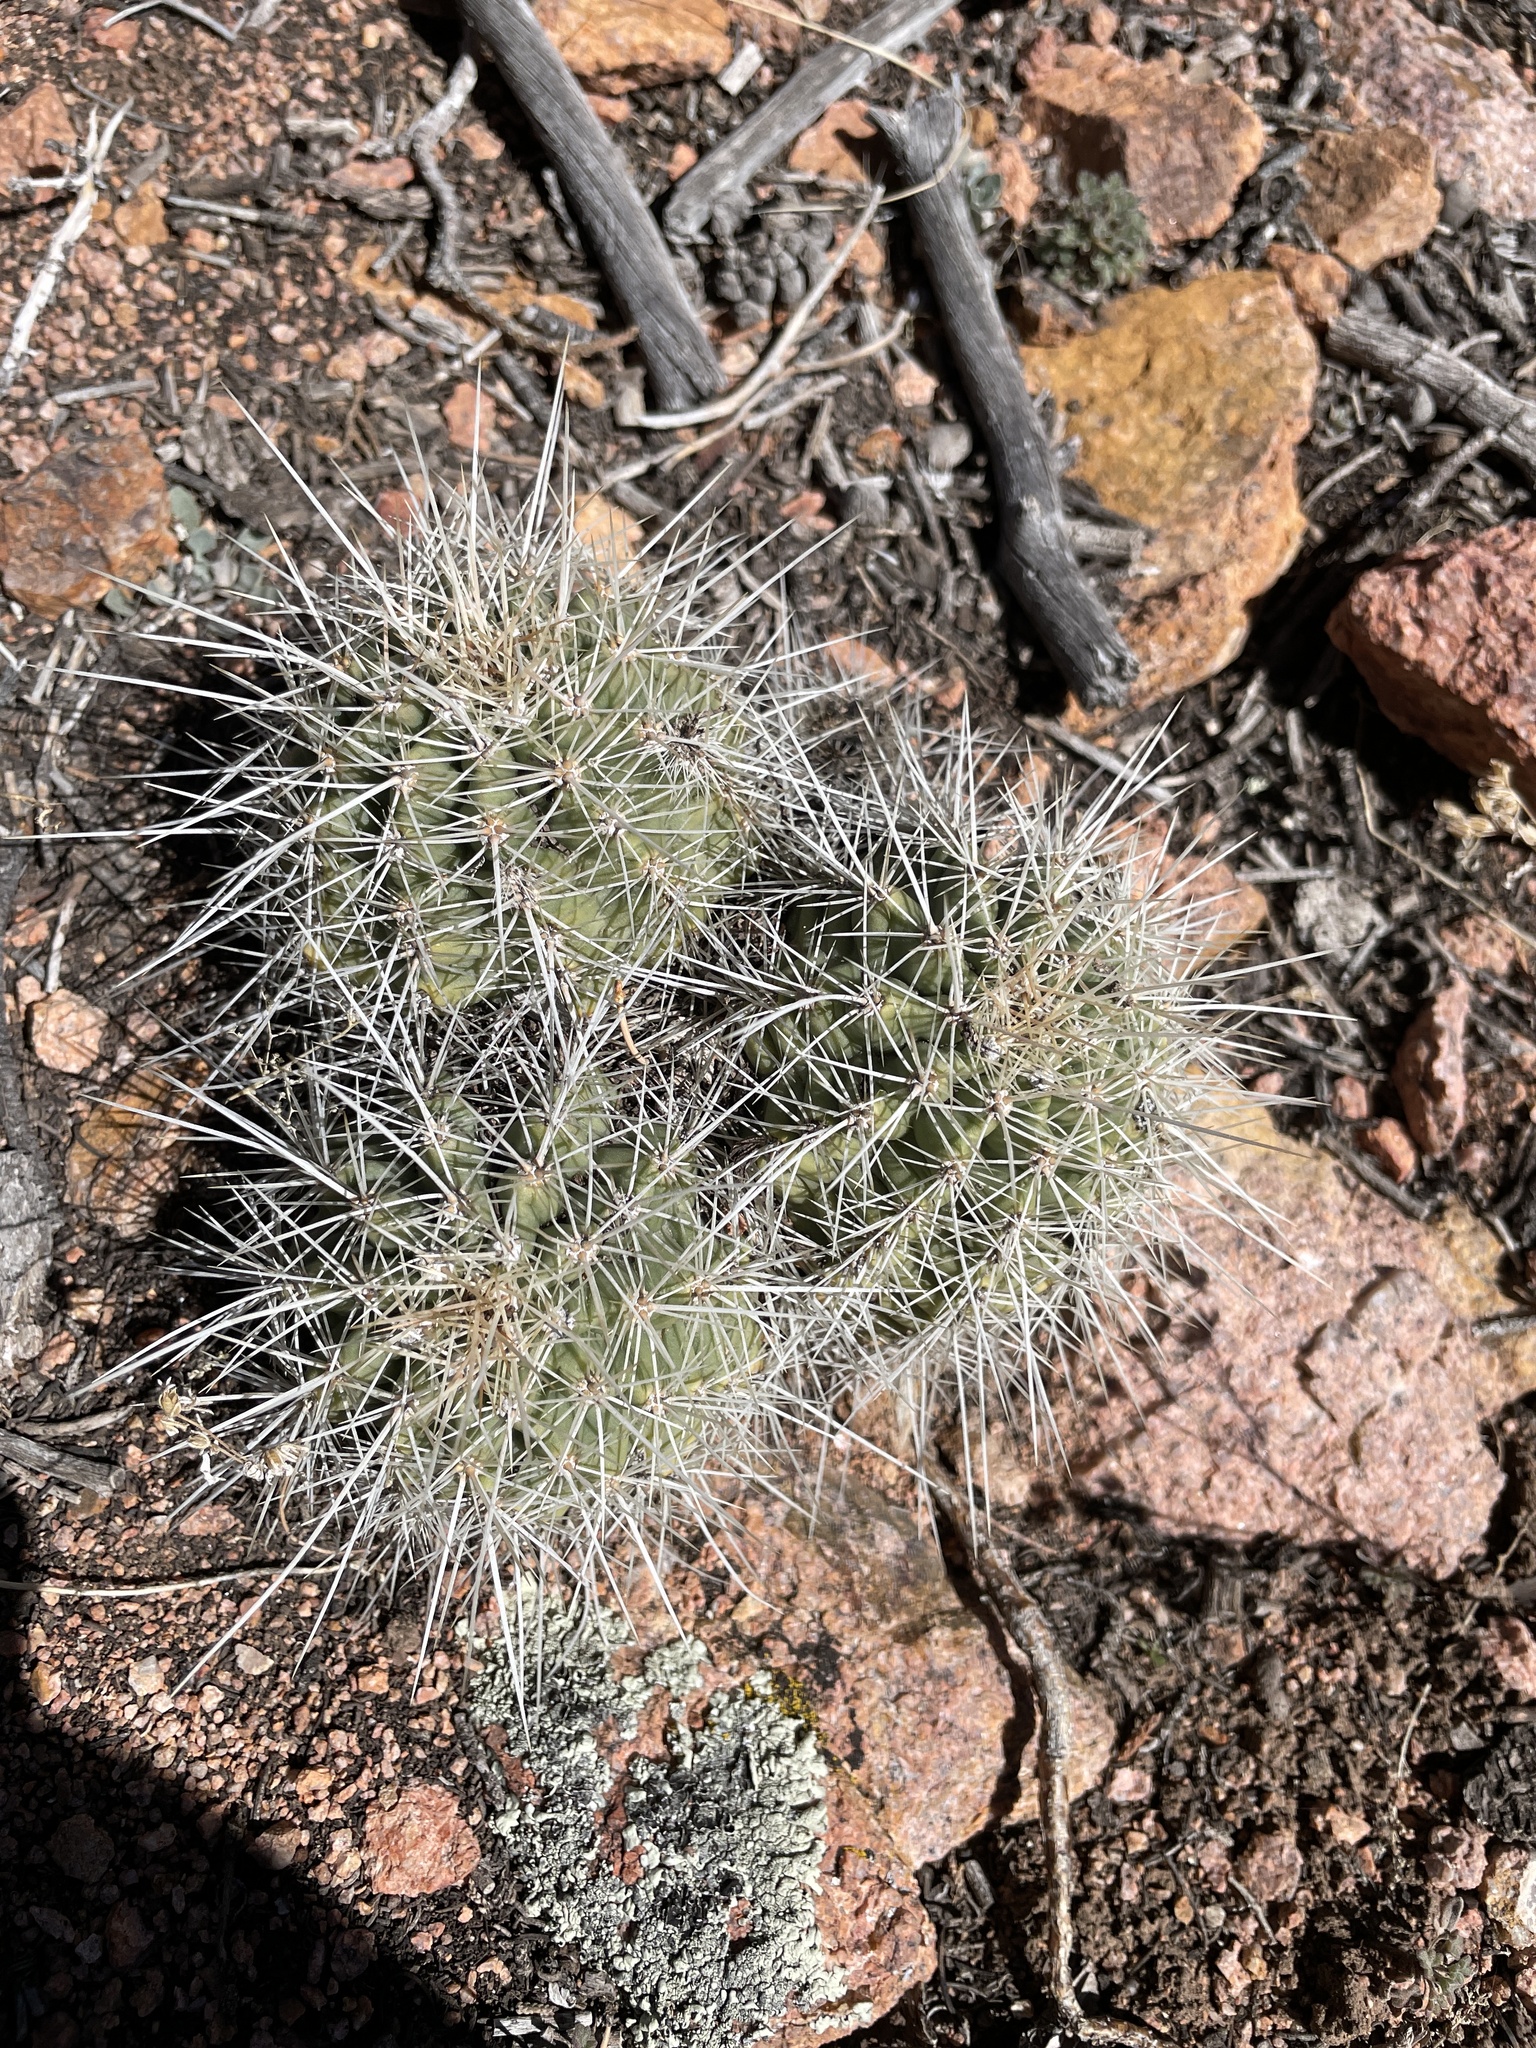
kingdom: Plantae
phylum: Tracheophyta
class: Magnoliopsida
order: Caryophyllales
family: Cactaceae
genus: Echinocereus
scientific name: Echinocereus coccineus
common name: Scarlet hedgehog cactus
